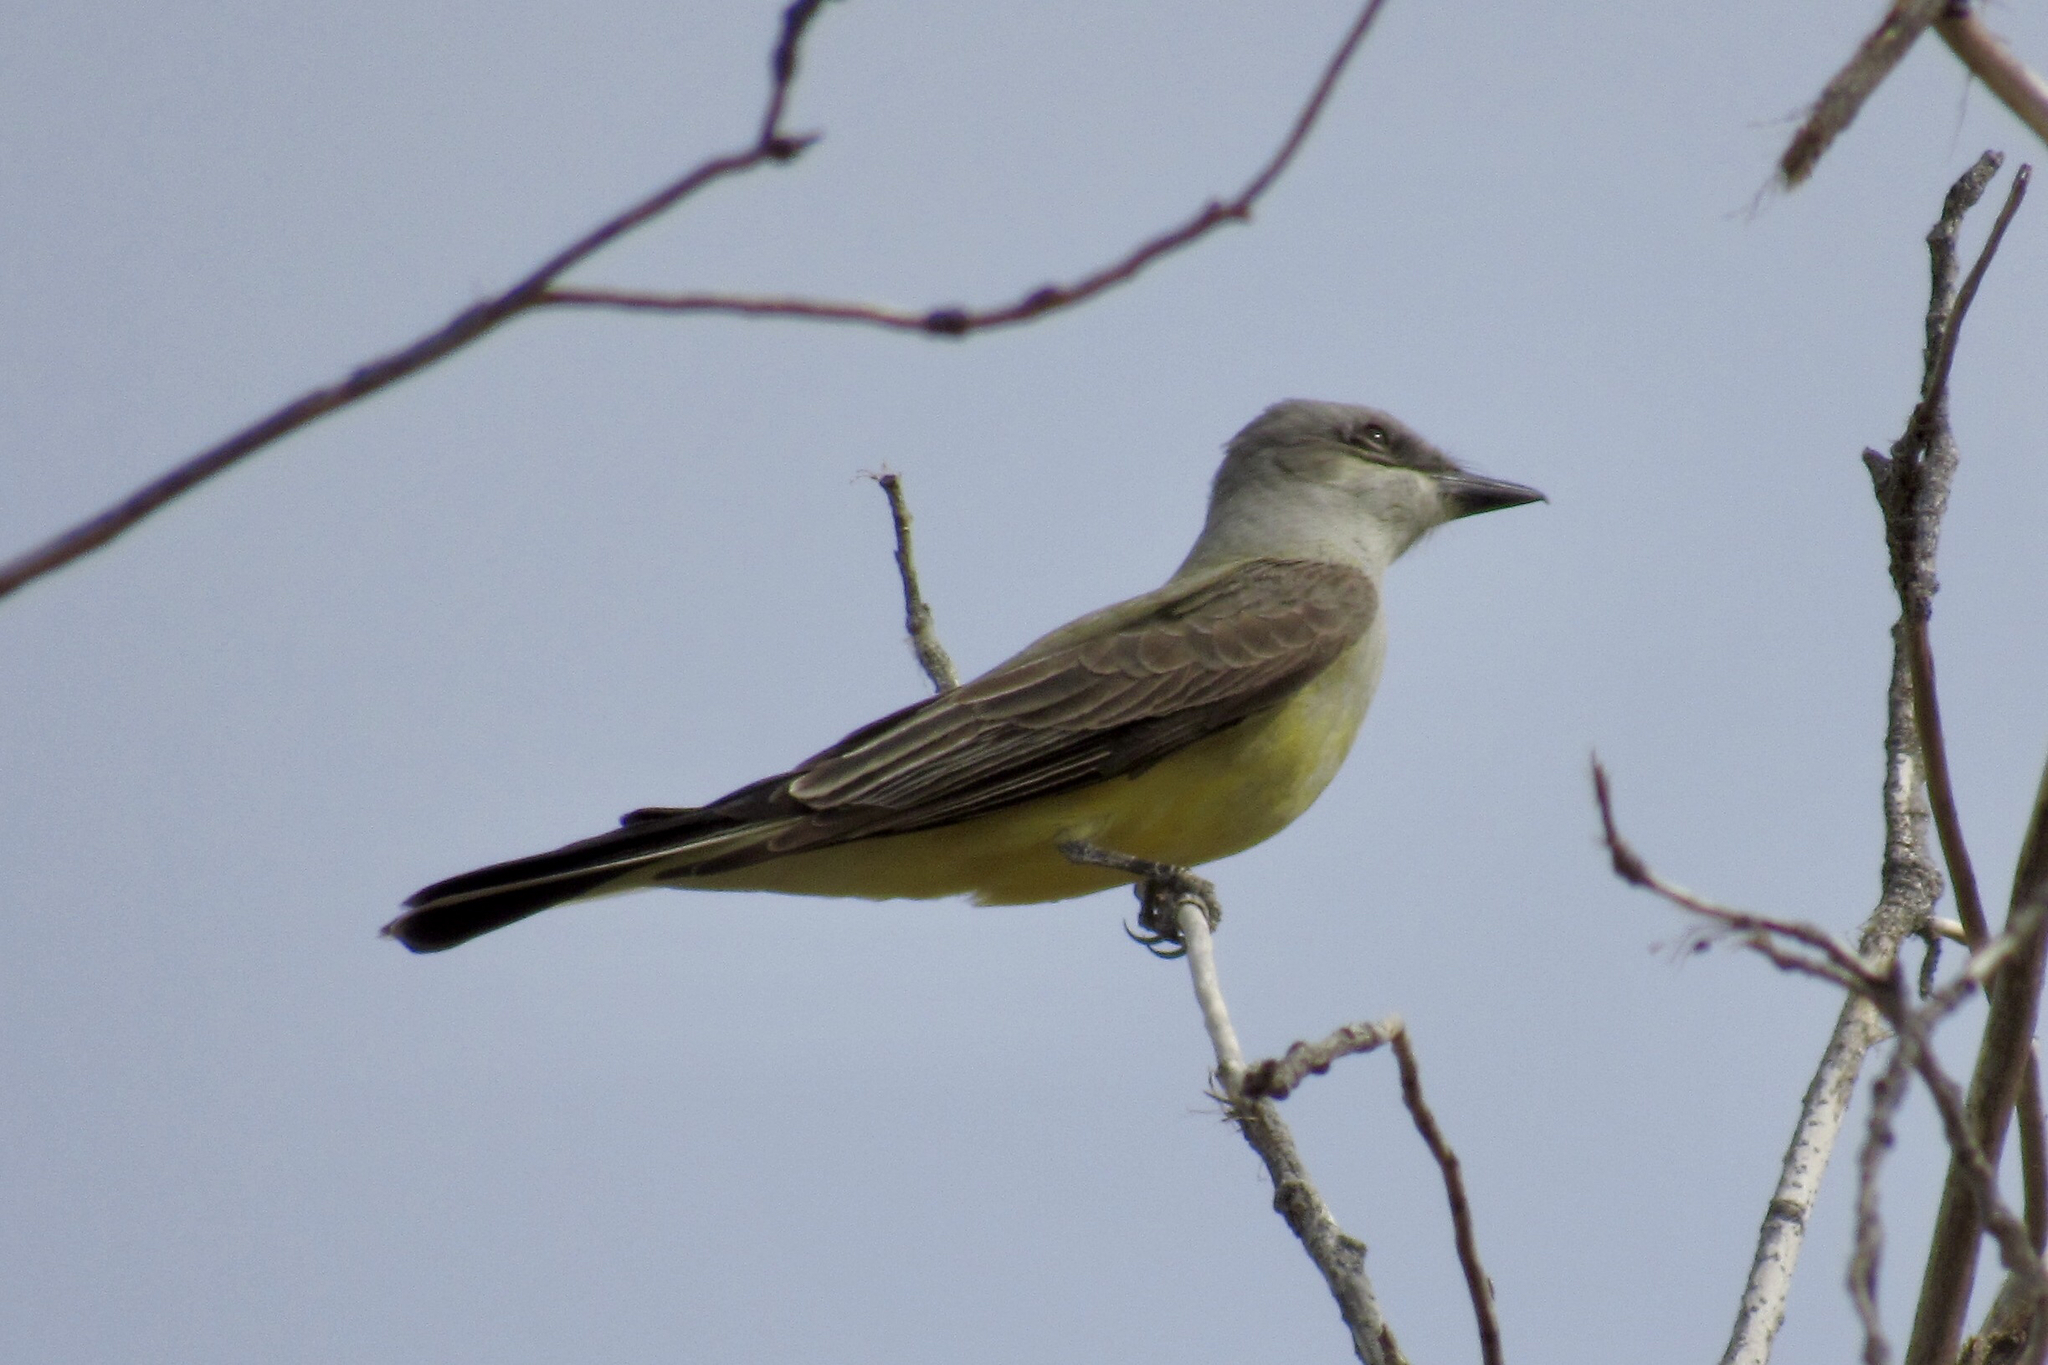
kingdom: Animalia
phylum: Chordata
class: Aves
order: Passeriformes
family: Tyrannidae
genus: Tyrannus
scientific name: Tyrannus verticalis
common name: Western kingbird
